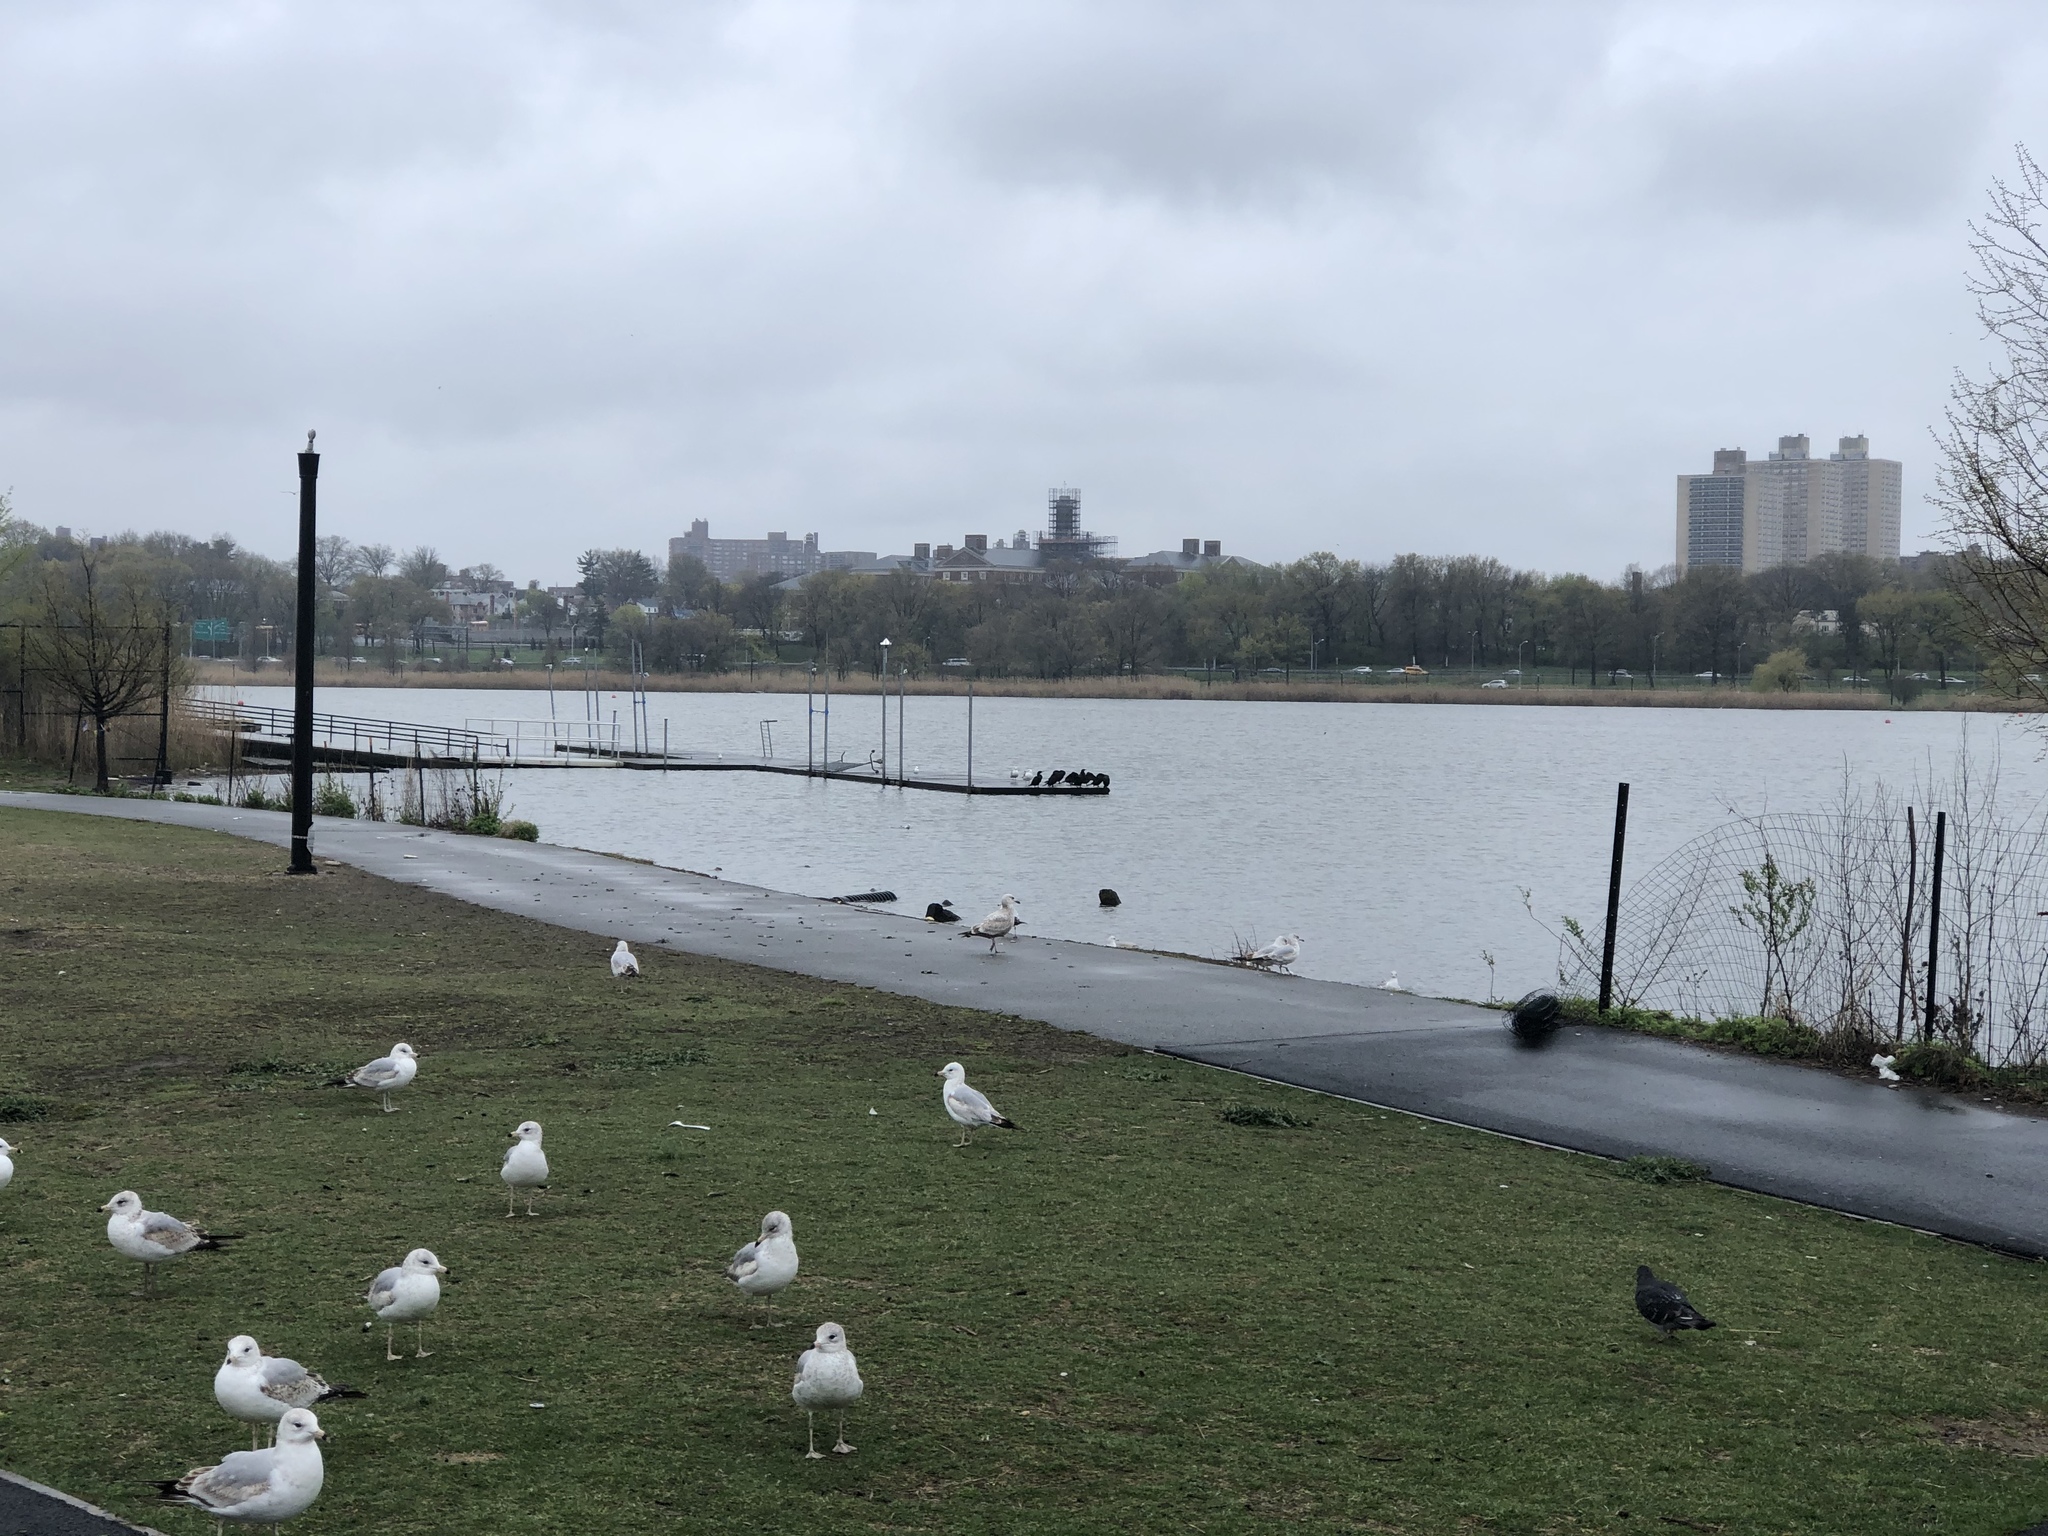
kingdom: Animalia
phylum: Chordata
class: Aves
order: Charadriiformes
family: Laridae
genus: Larus
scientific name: Larus delawarensis
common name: Ring-billed gull
